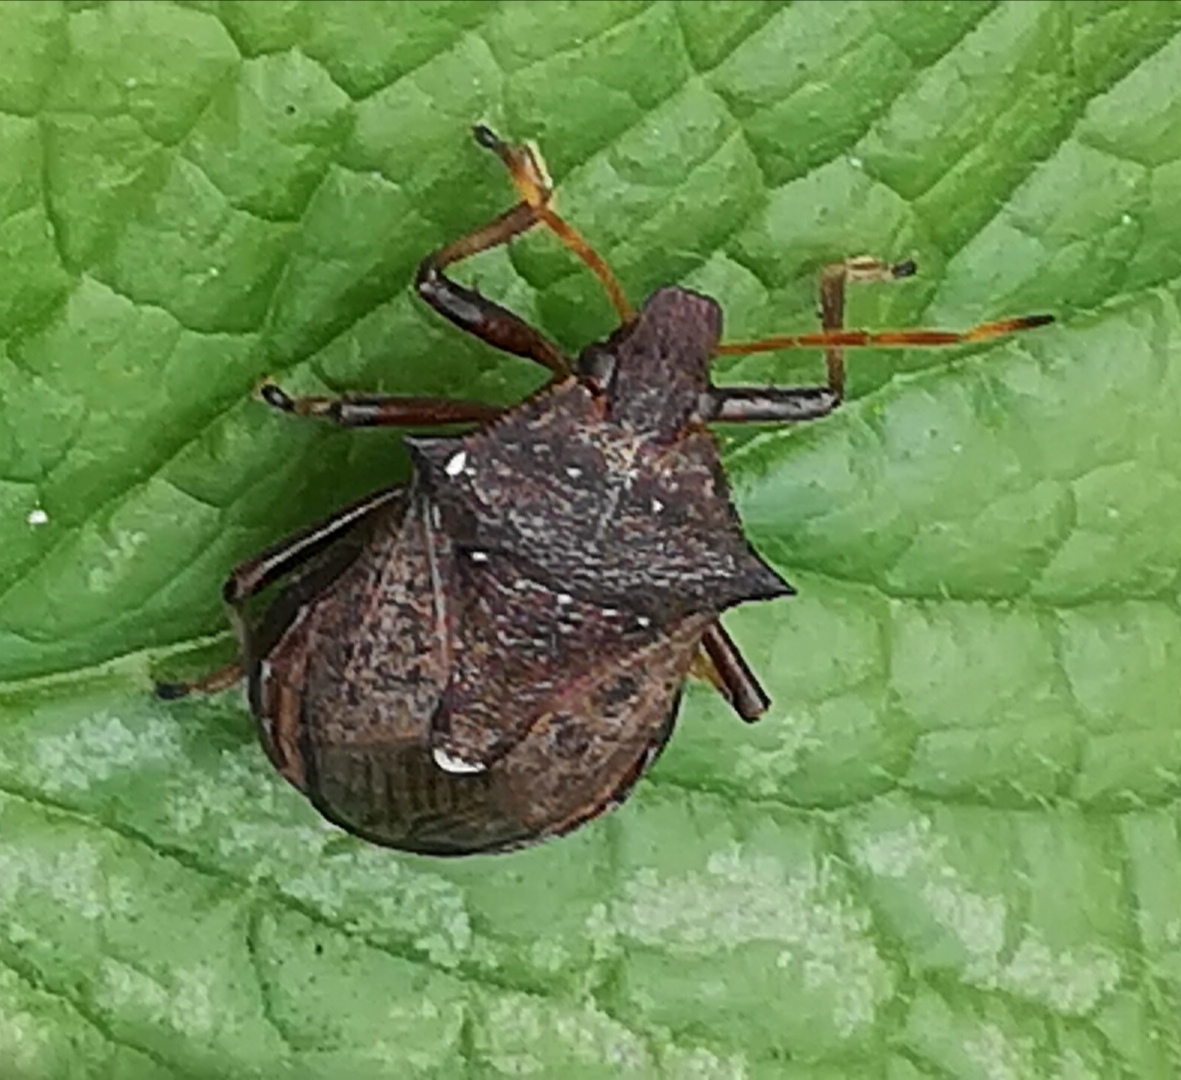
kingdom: Animalia
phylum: Arthropoda
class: Insecta
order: Hemiptera
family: Pentatomidae
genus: Picromerus
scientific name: Picromerus bidens
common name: Spiked shieldbug
